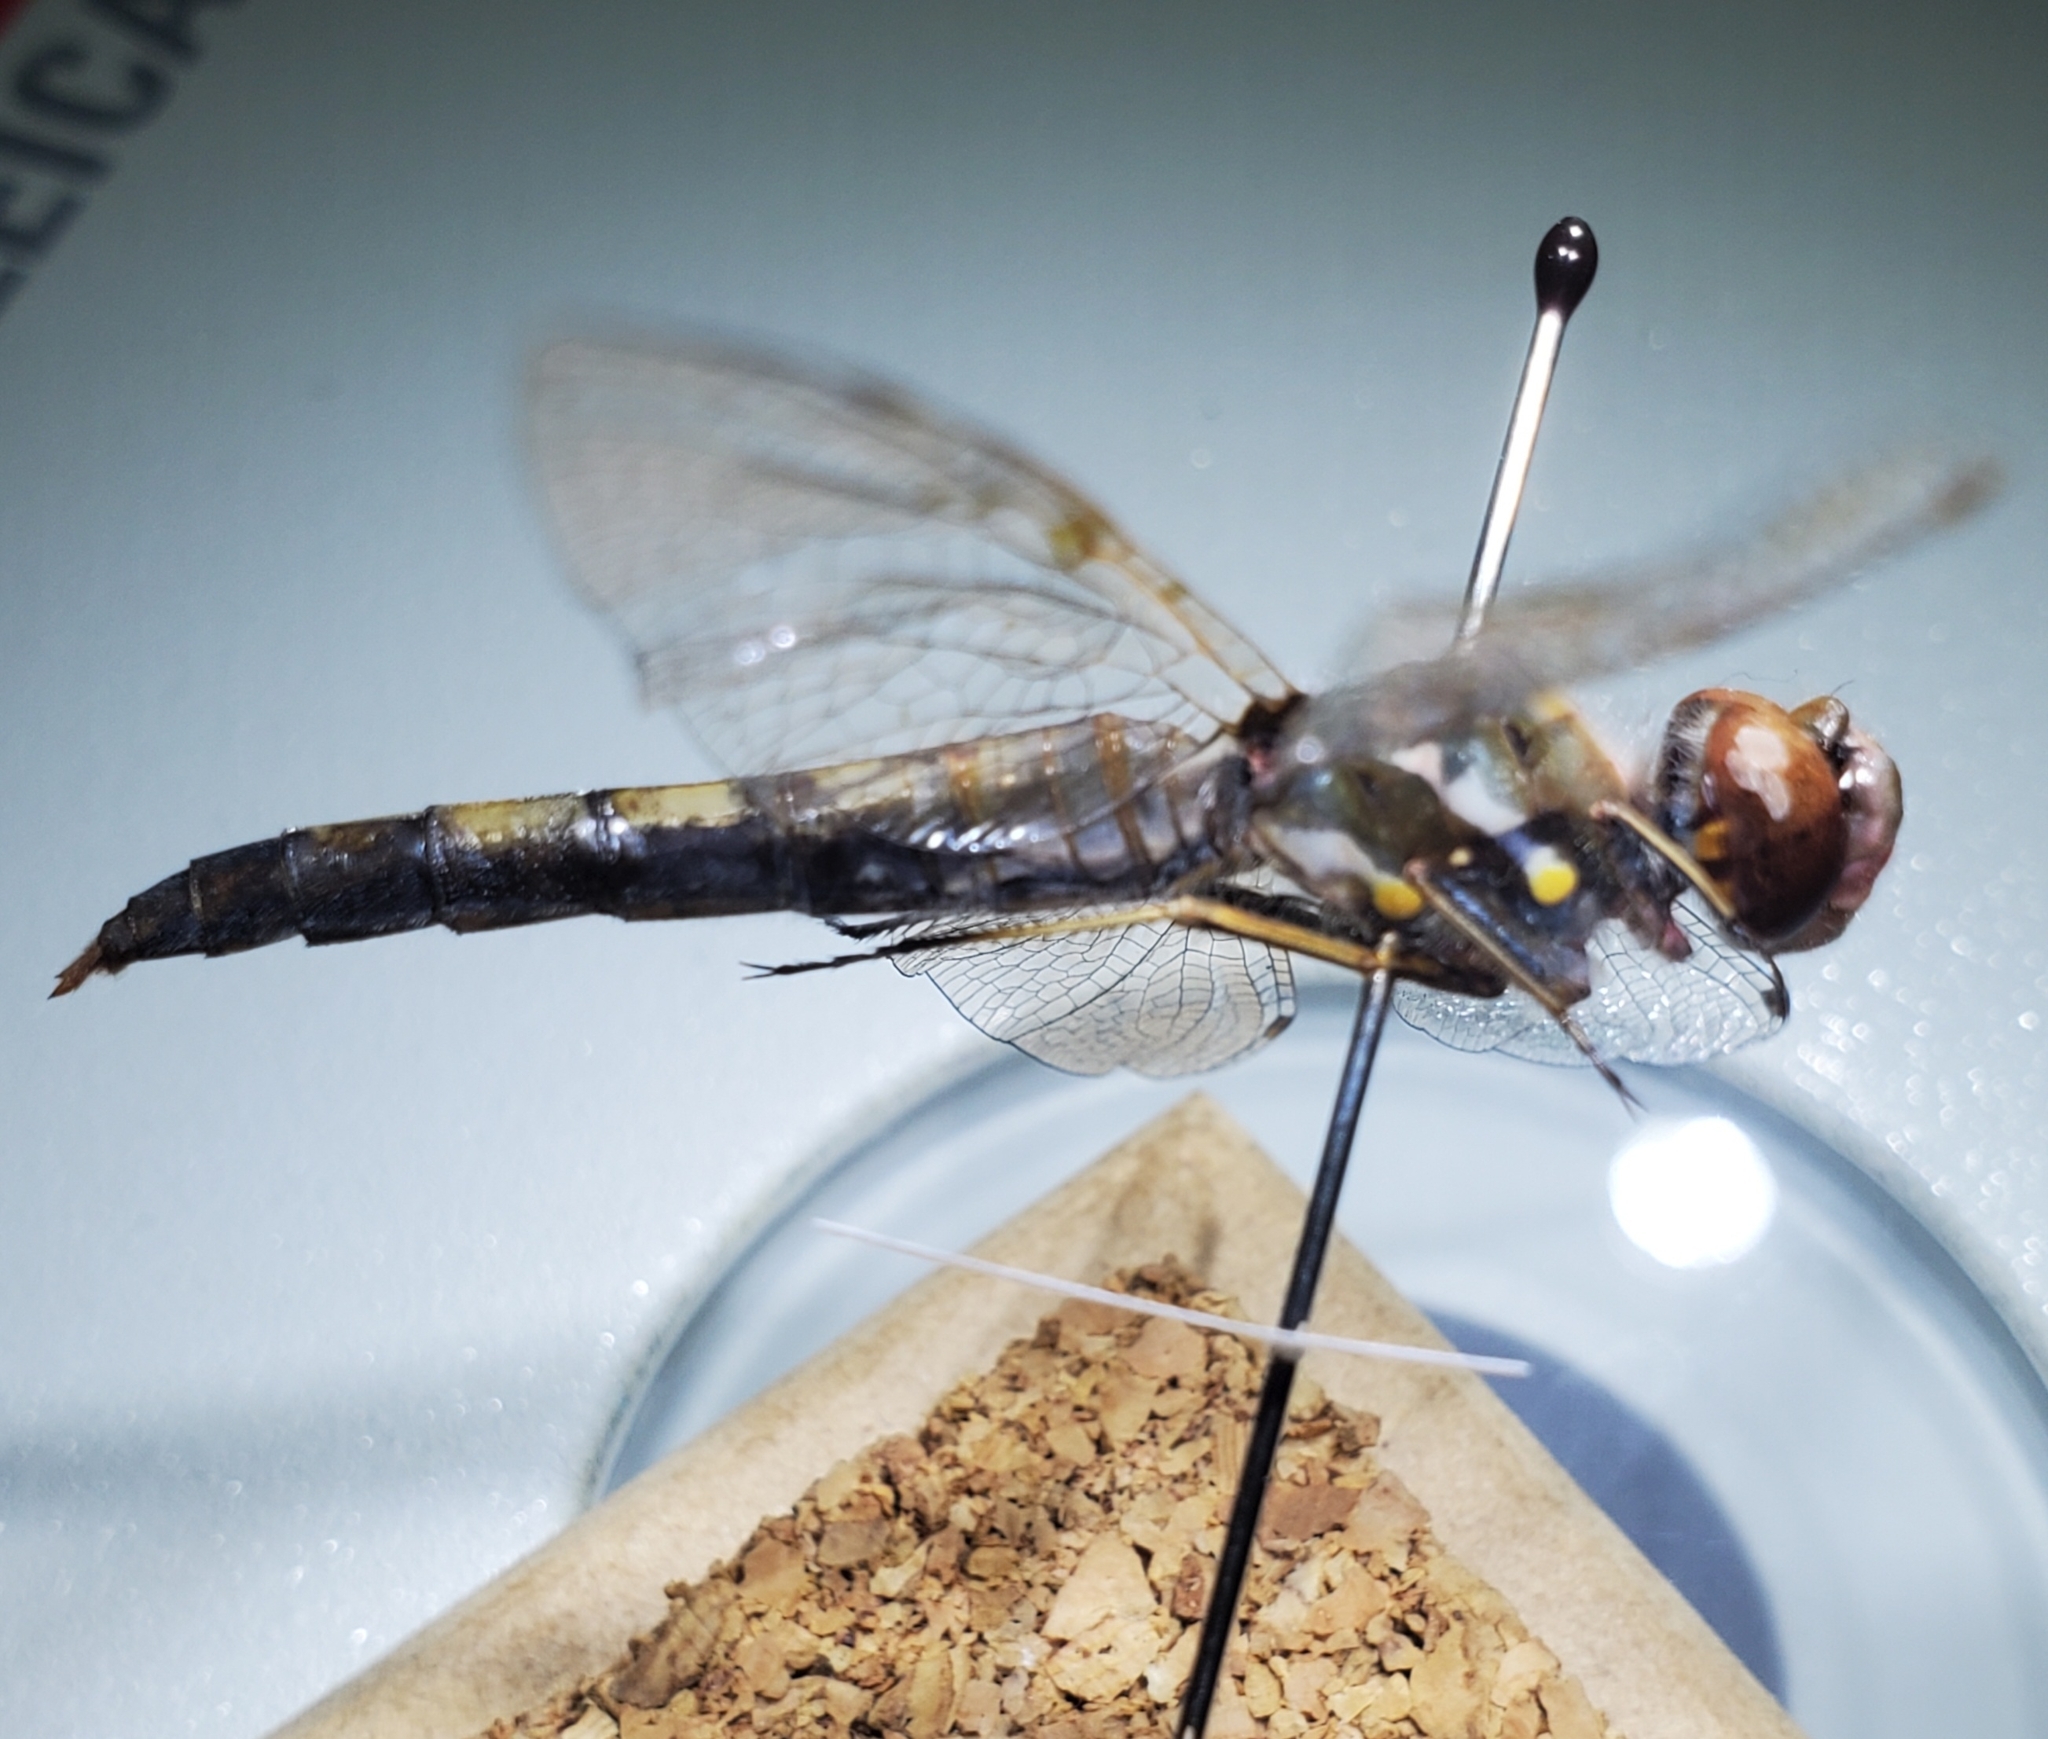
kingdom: Animalia
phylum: Arthropoda
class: Insecta
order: Odonata
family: Libellulidae
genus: Sympetrum
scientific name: Sympetrum corruptum
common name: Variegated meadowhawk
